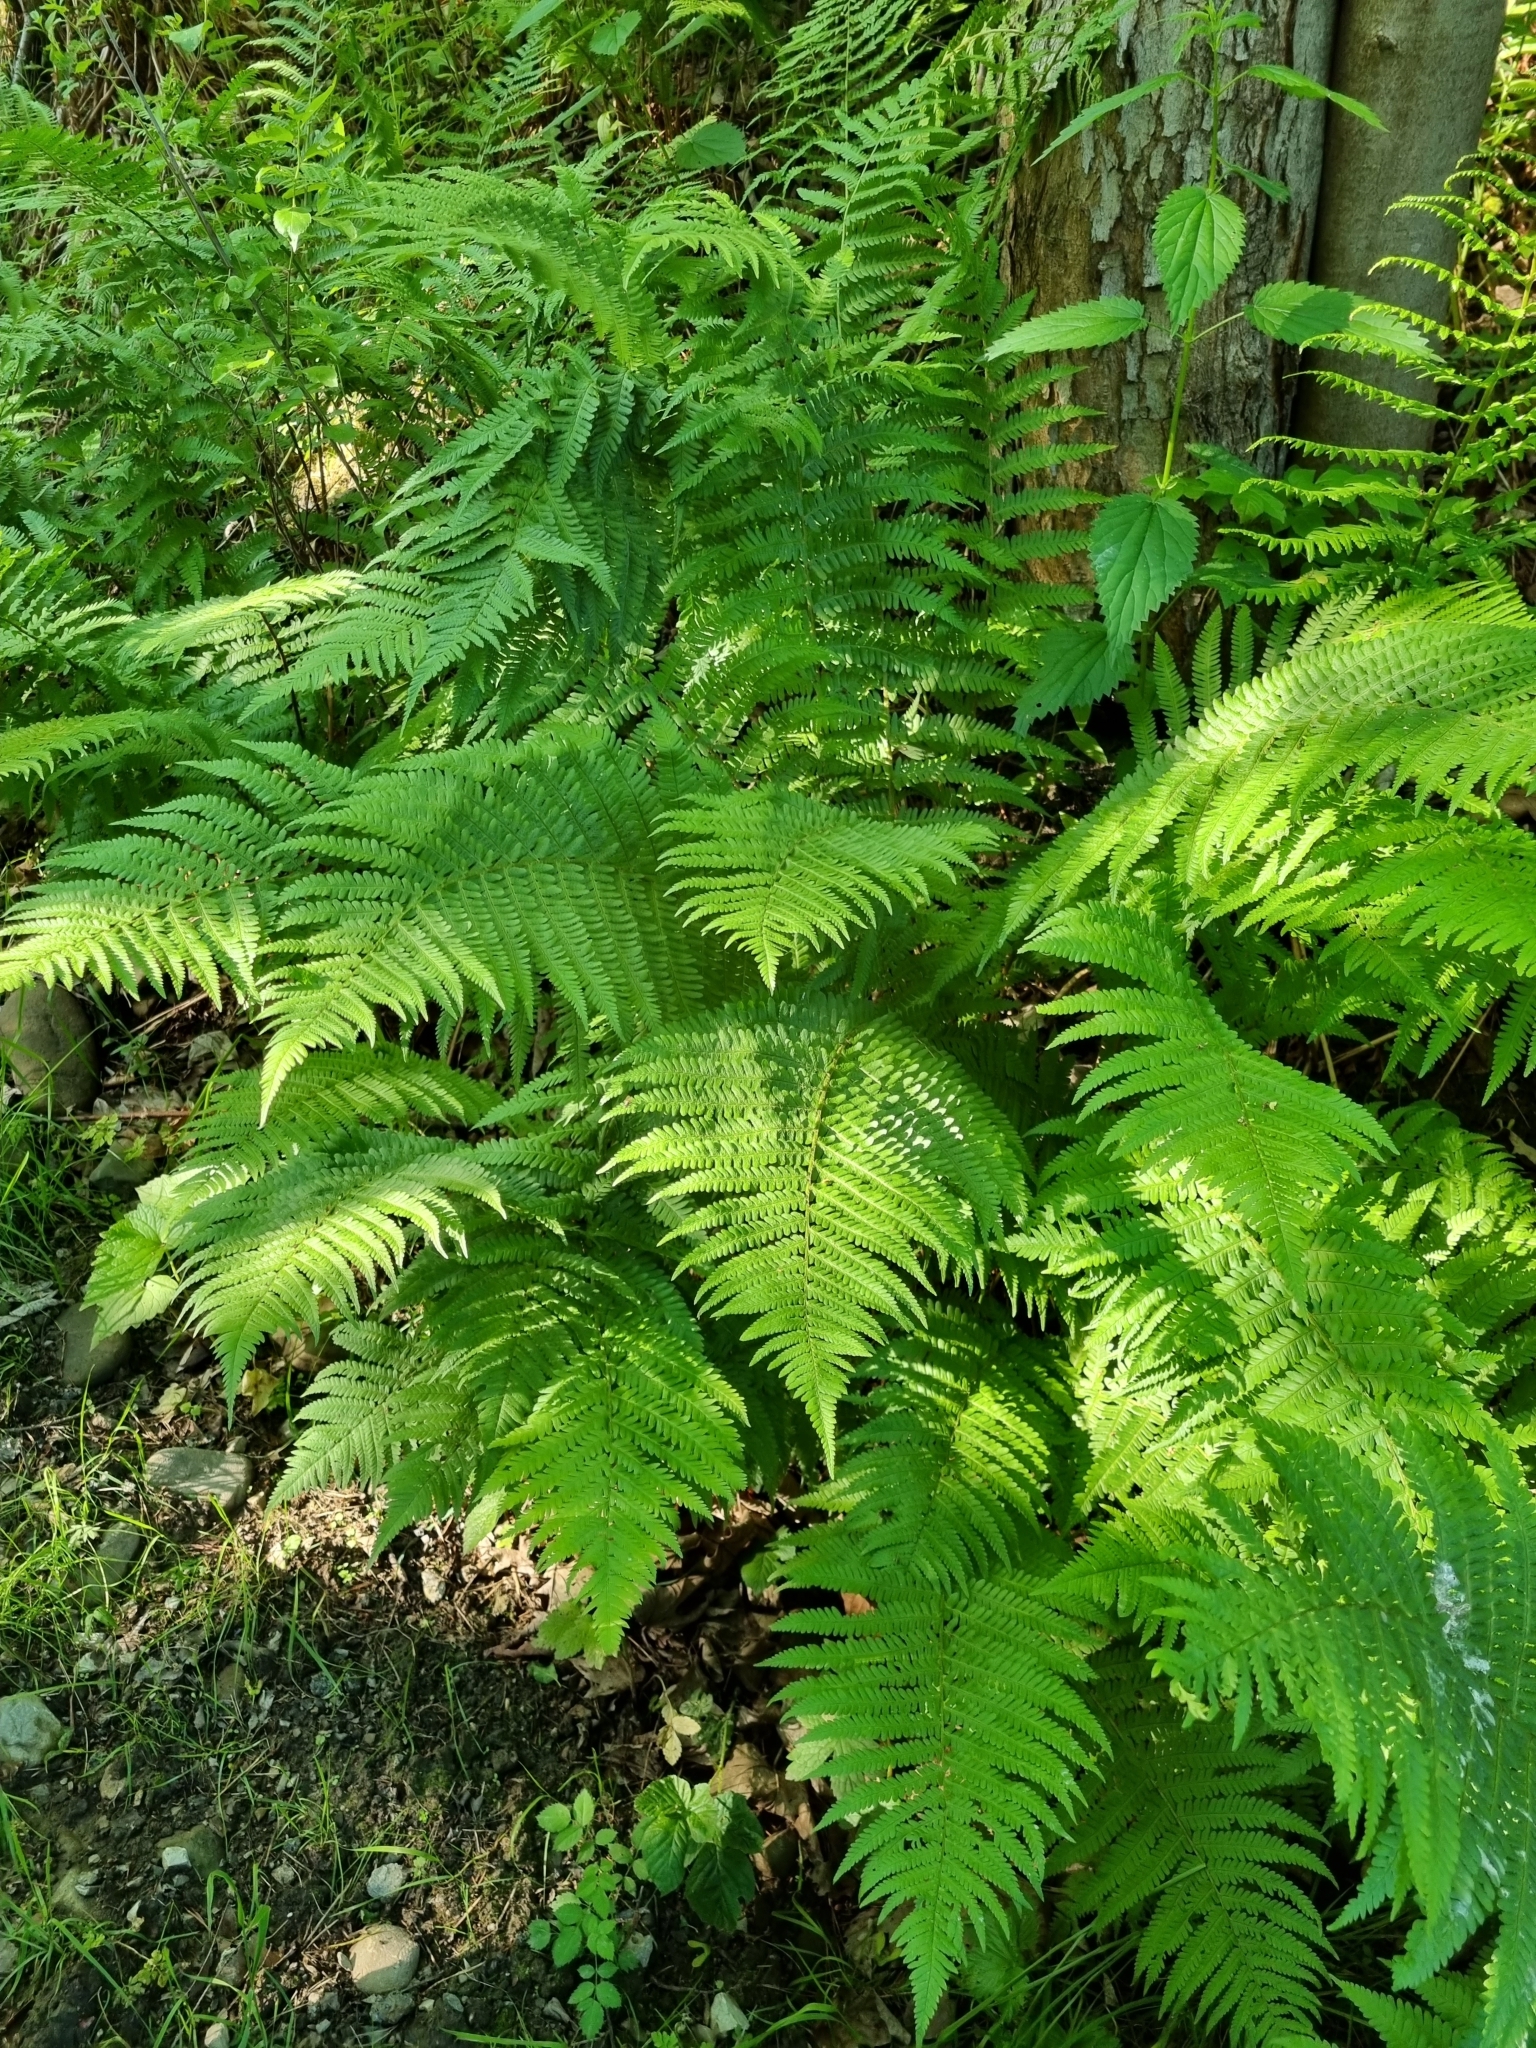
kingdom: Plantae
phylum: Tracheophyta
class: Polypodiopsida
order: Polypodiales
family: Dryopteridaceae
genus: Dryopteris
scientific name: Dryopteris filix-mas
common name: Male fern
